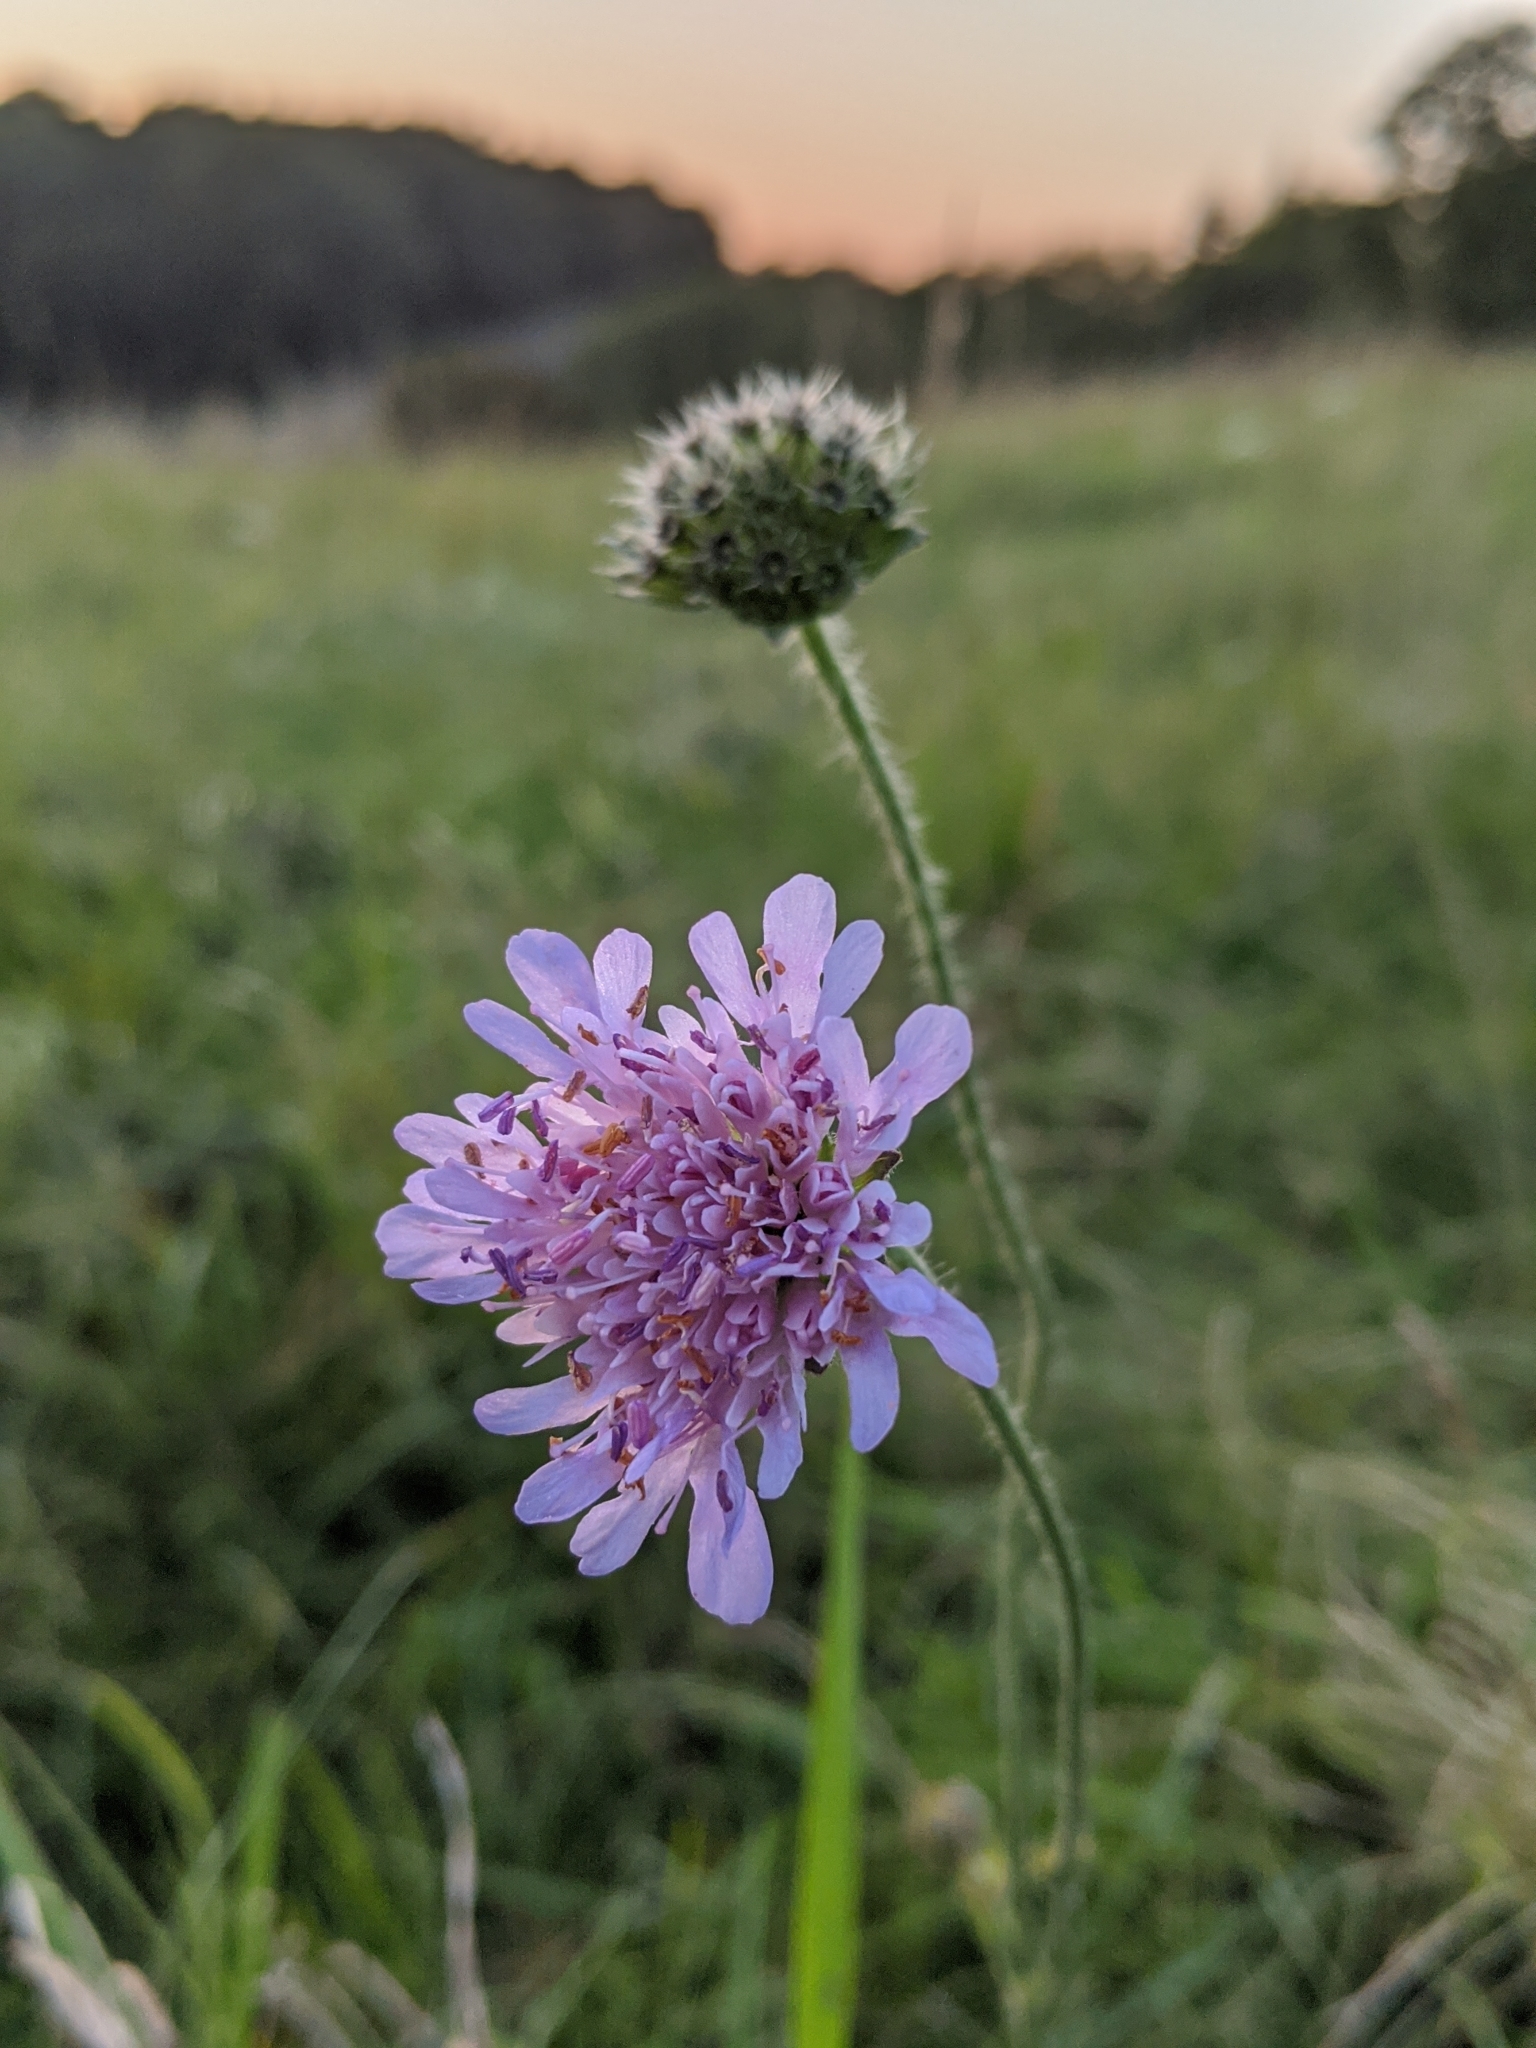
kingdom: Plantae
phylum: Tracheophyta
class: Magnoliopsida
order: Dipsacales
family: Caprifoliaceae
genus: Knautia
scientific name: Knautia arvensis
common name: Field scabiosa
